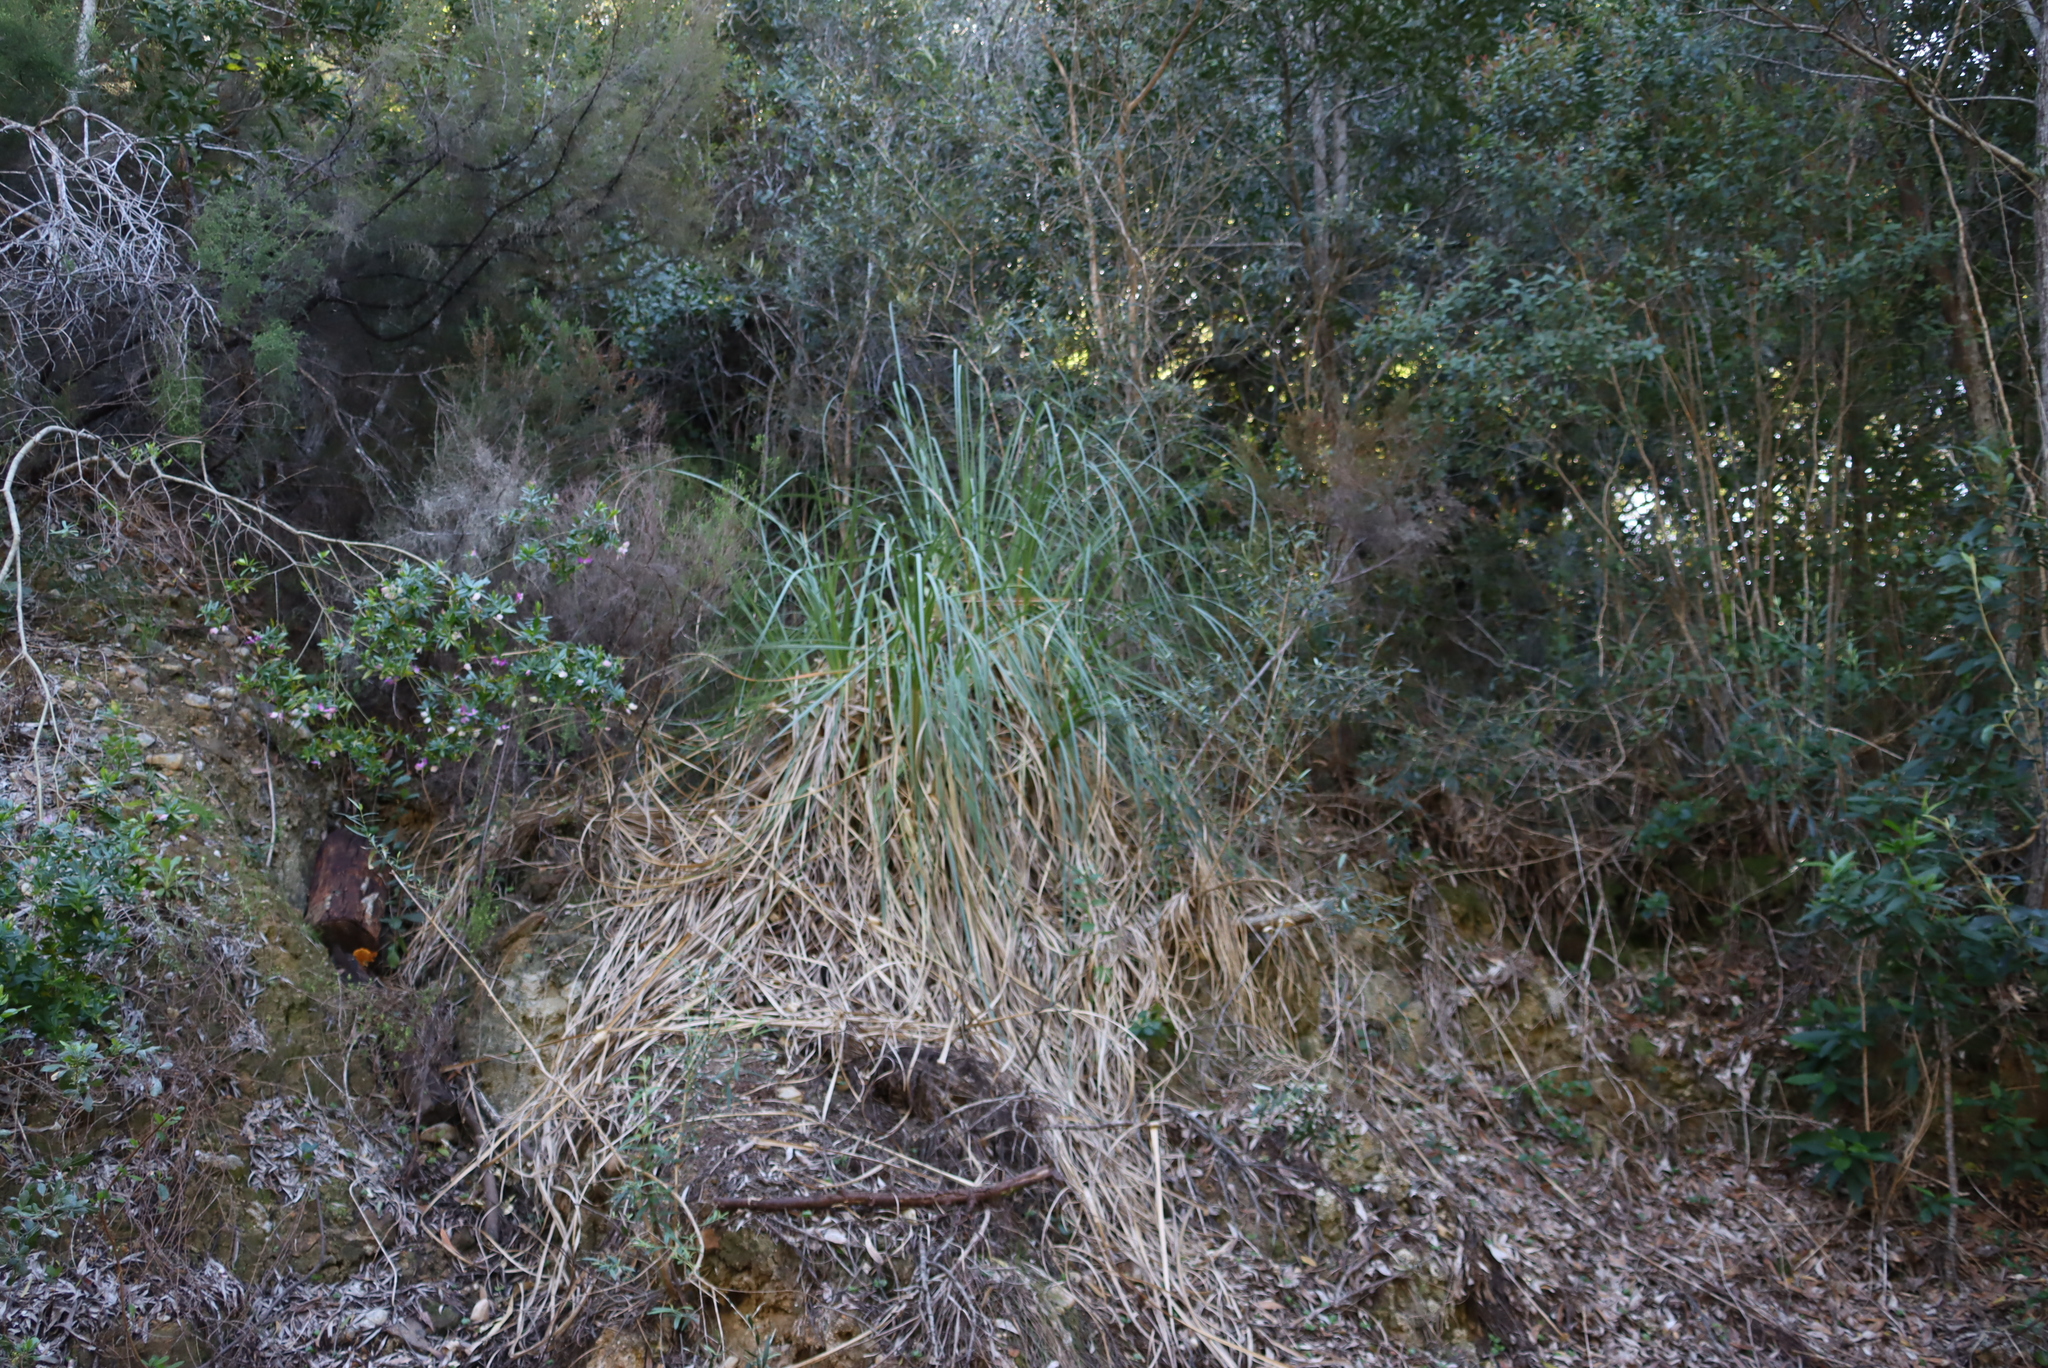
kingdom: Plantae
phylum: Tracheophyta
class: Liliopsida
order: Poales
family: Poaceae
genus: Cortaderia
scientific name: Cortaderia selloana
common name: Uruguayan pampas grass
